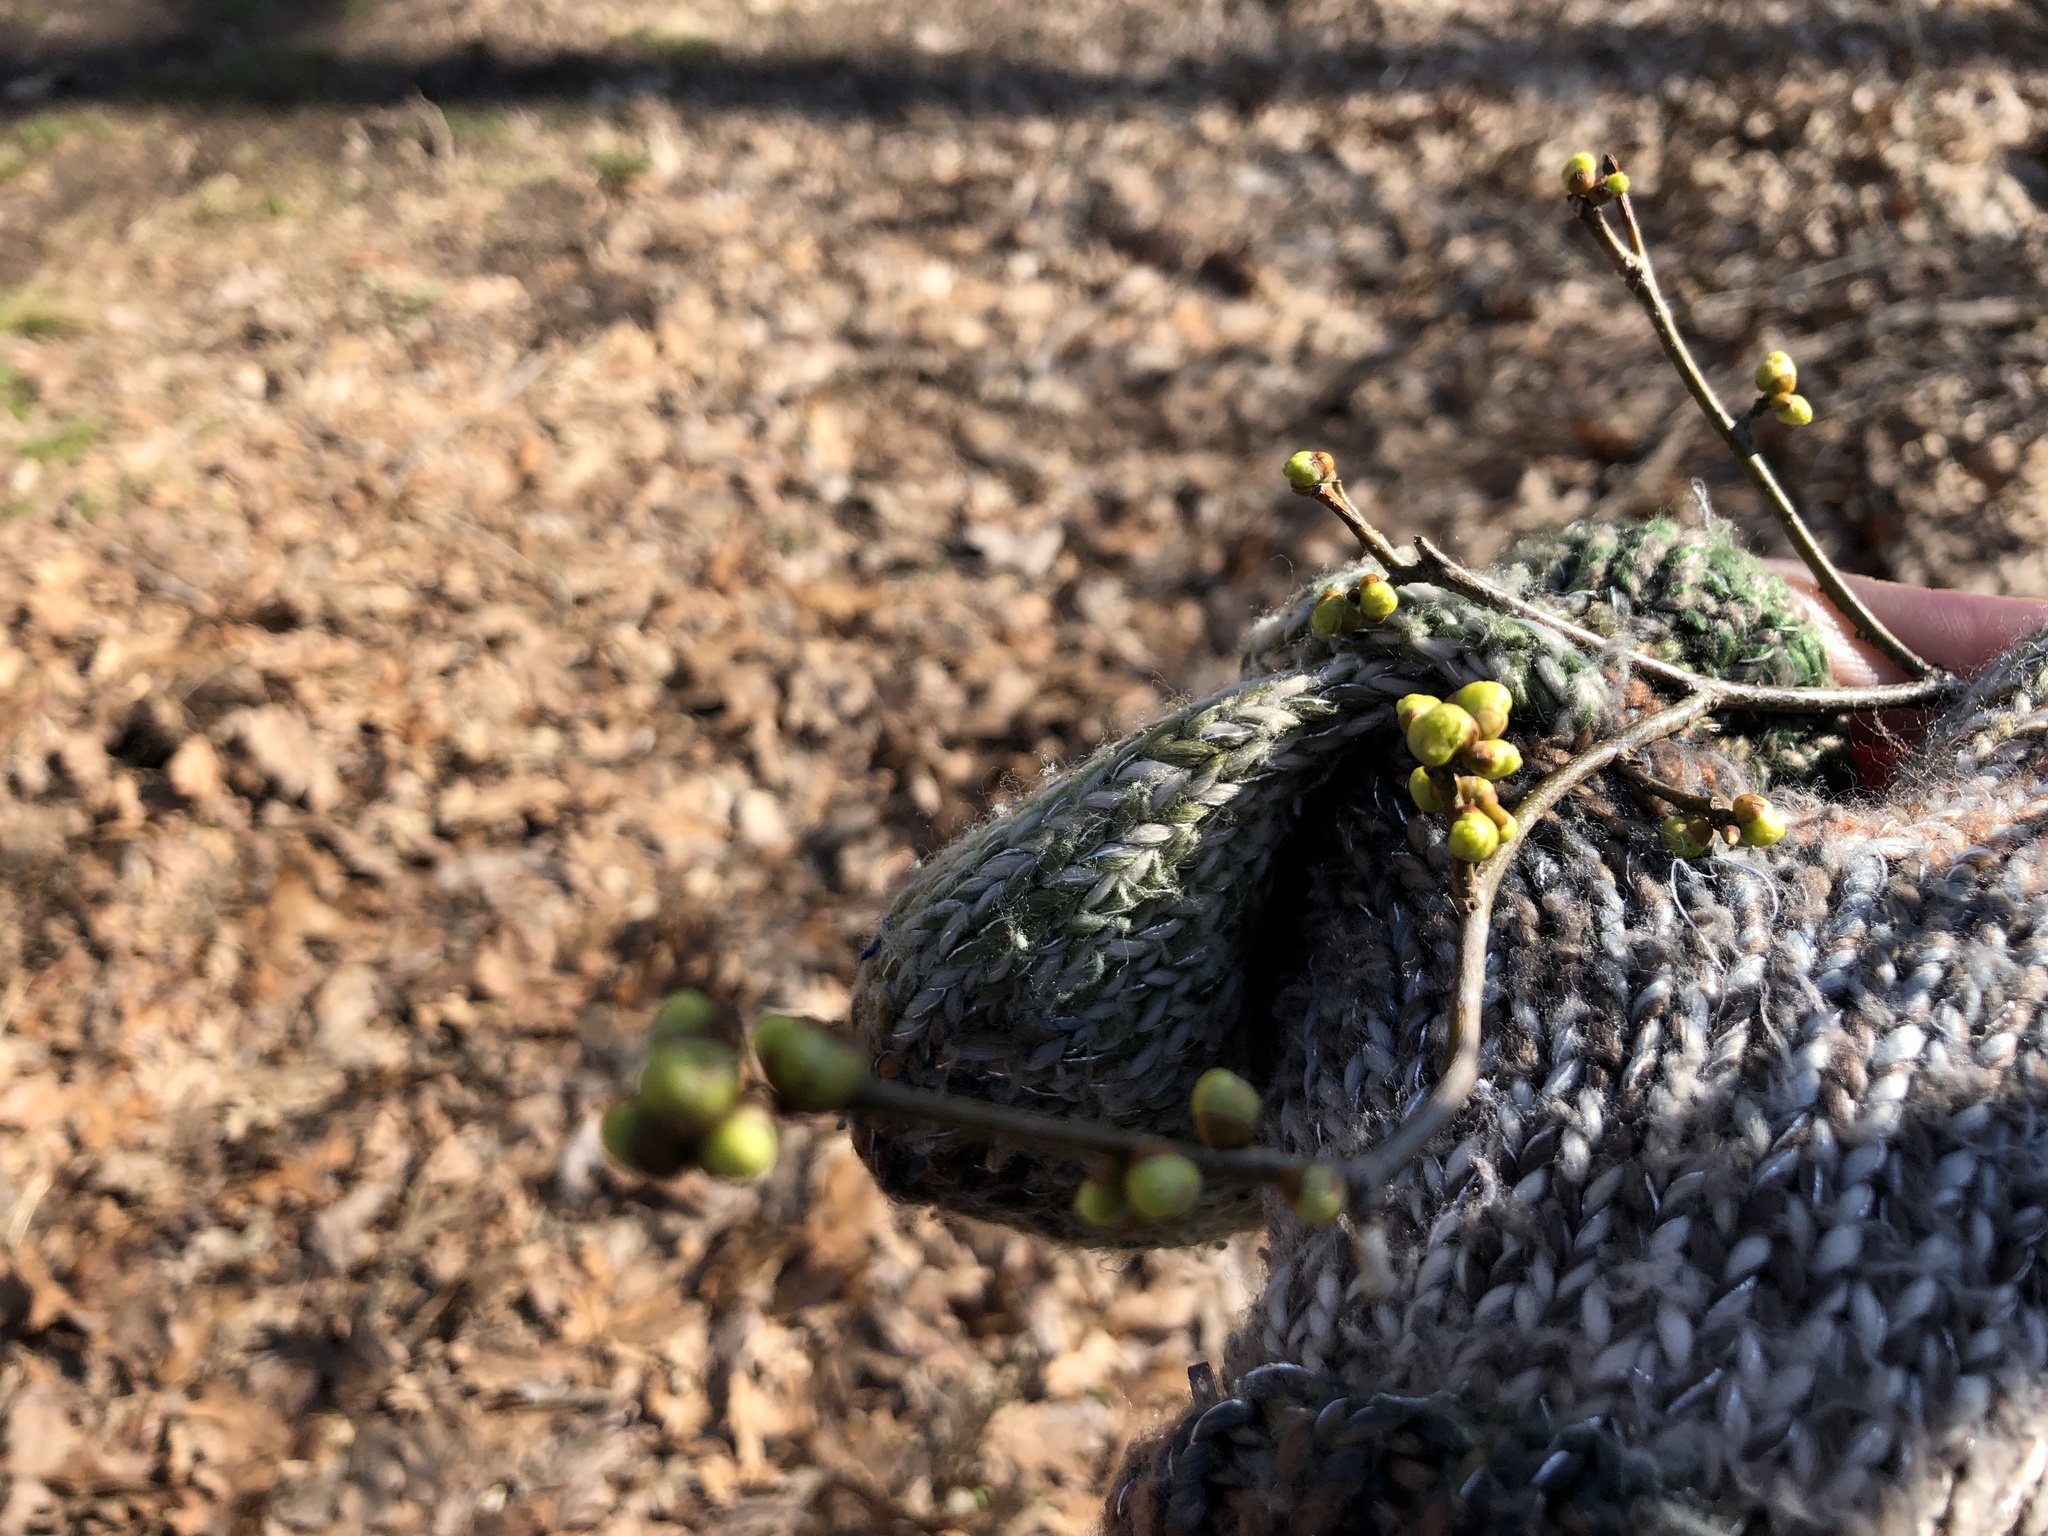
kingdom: Plantae
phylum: Tracheophyta
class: Magnoliopsida
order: Laurales
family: Lauraceae
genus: Lindera
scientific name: Lindera benzoin
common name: Spicebush
